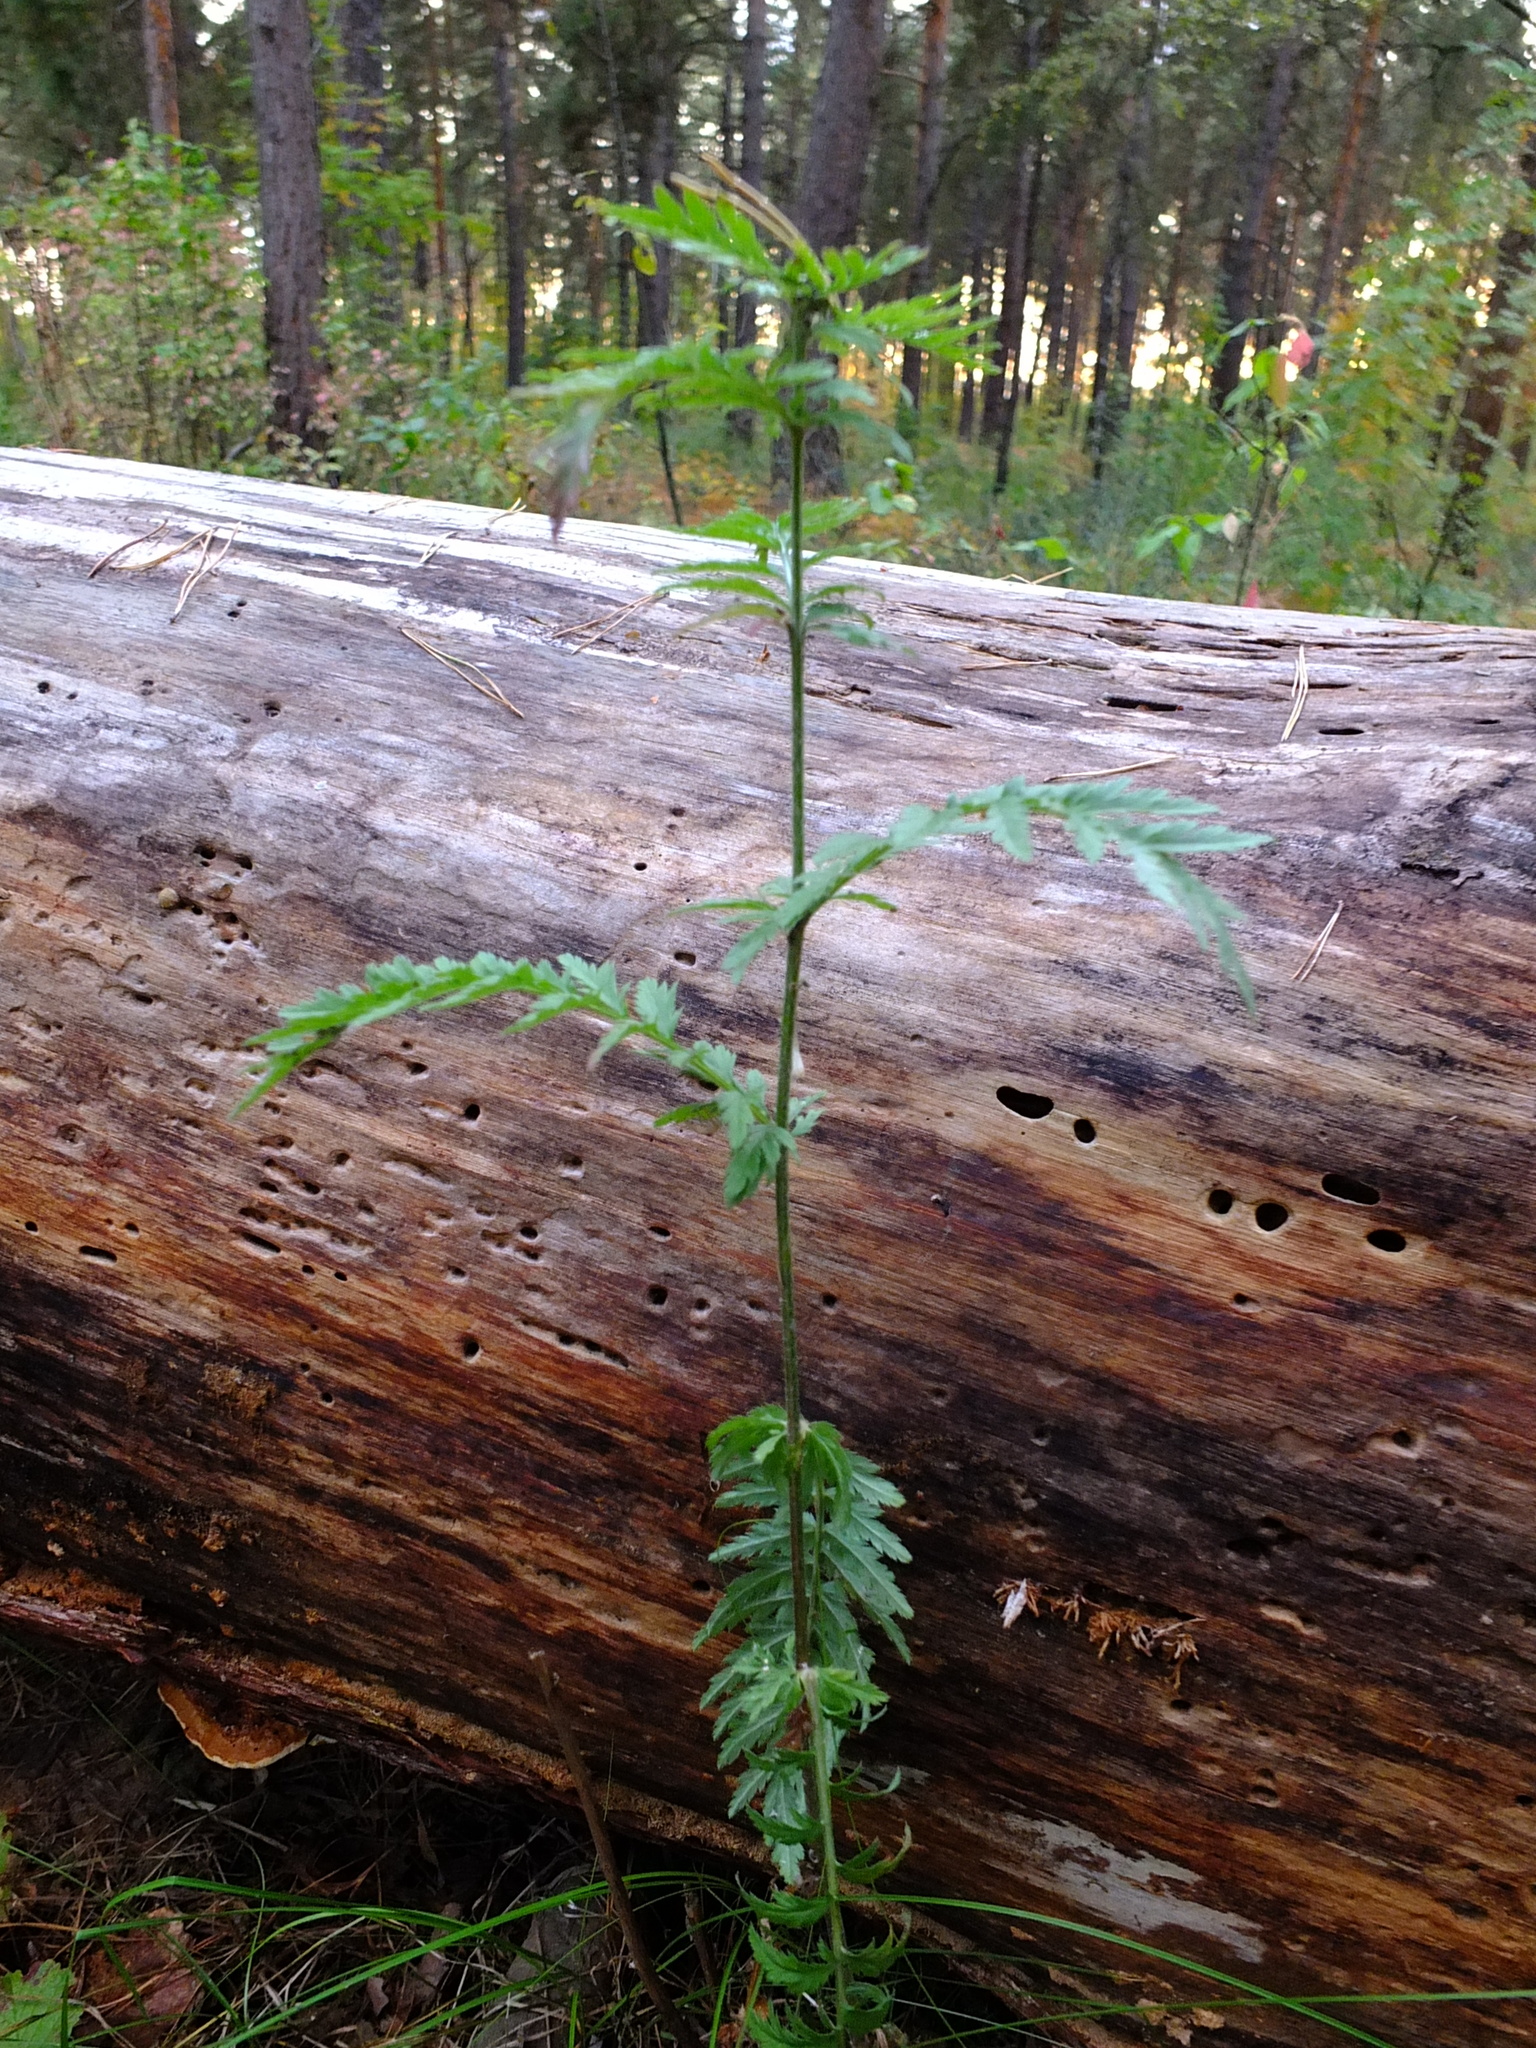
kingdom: Plantae
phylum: Tracheophyta
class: Magnoliopsida
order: Asterales
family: Asteraceae
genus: Tanacetum
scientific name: Tanacetum corymbosum
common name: Scentless feverfew
